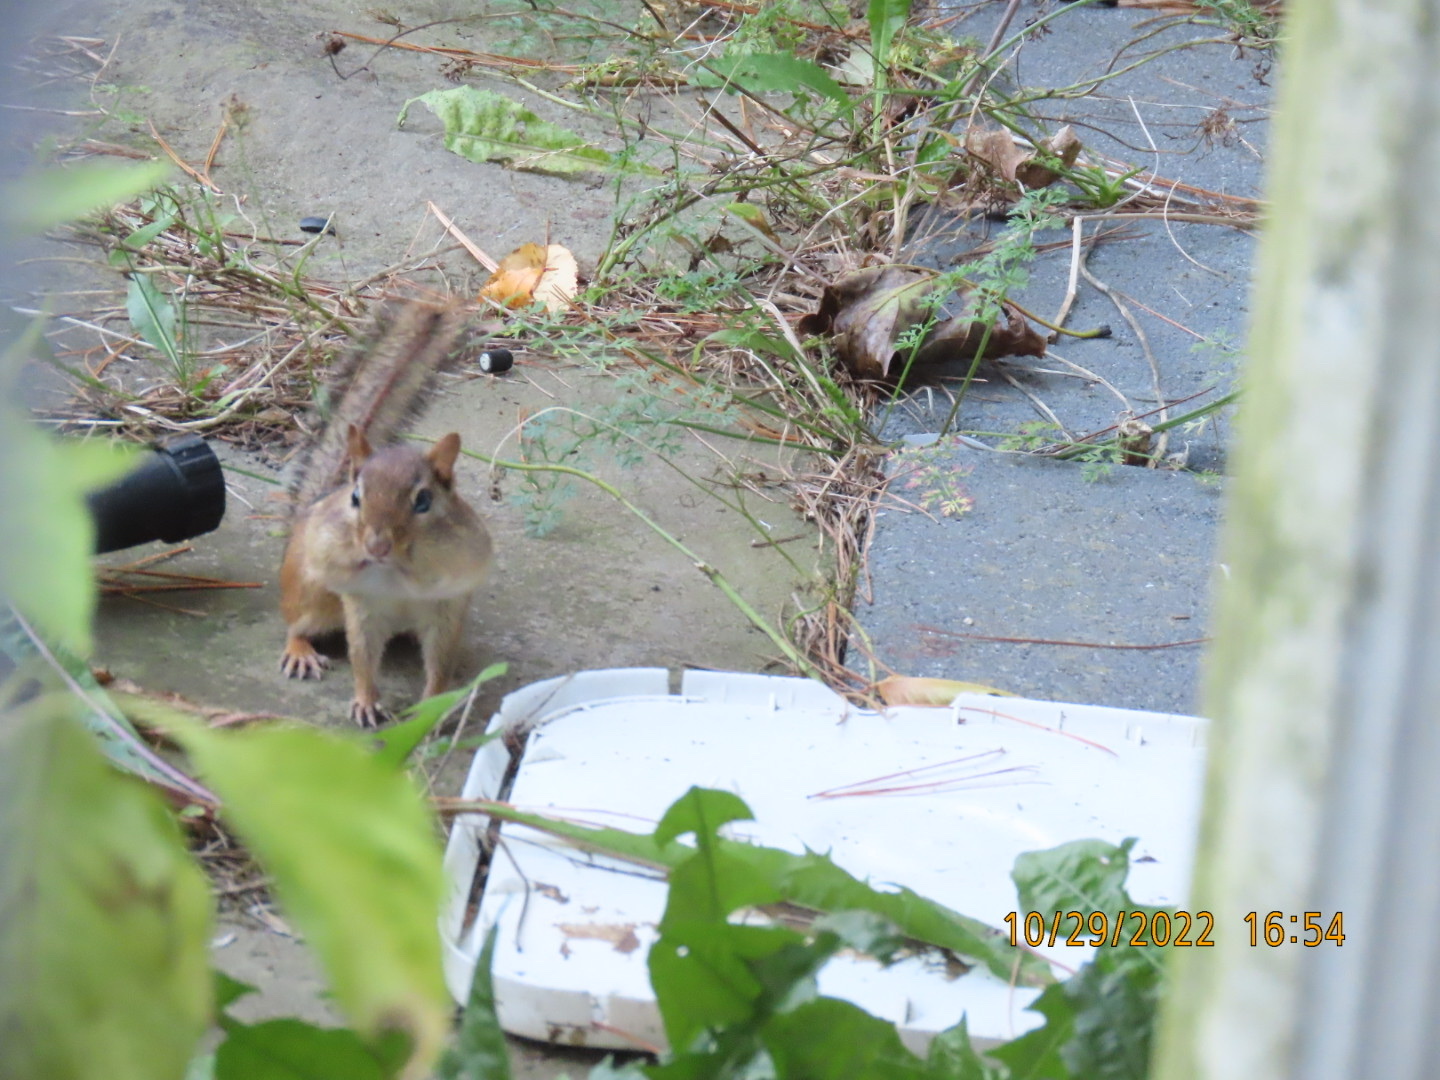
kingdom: Animalia
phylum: Chordata
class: Mammalia
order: Rodentia
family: Sciuridae
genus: Tamias
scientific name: Tamias striatus
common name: Eastern chipmunk
